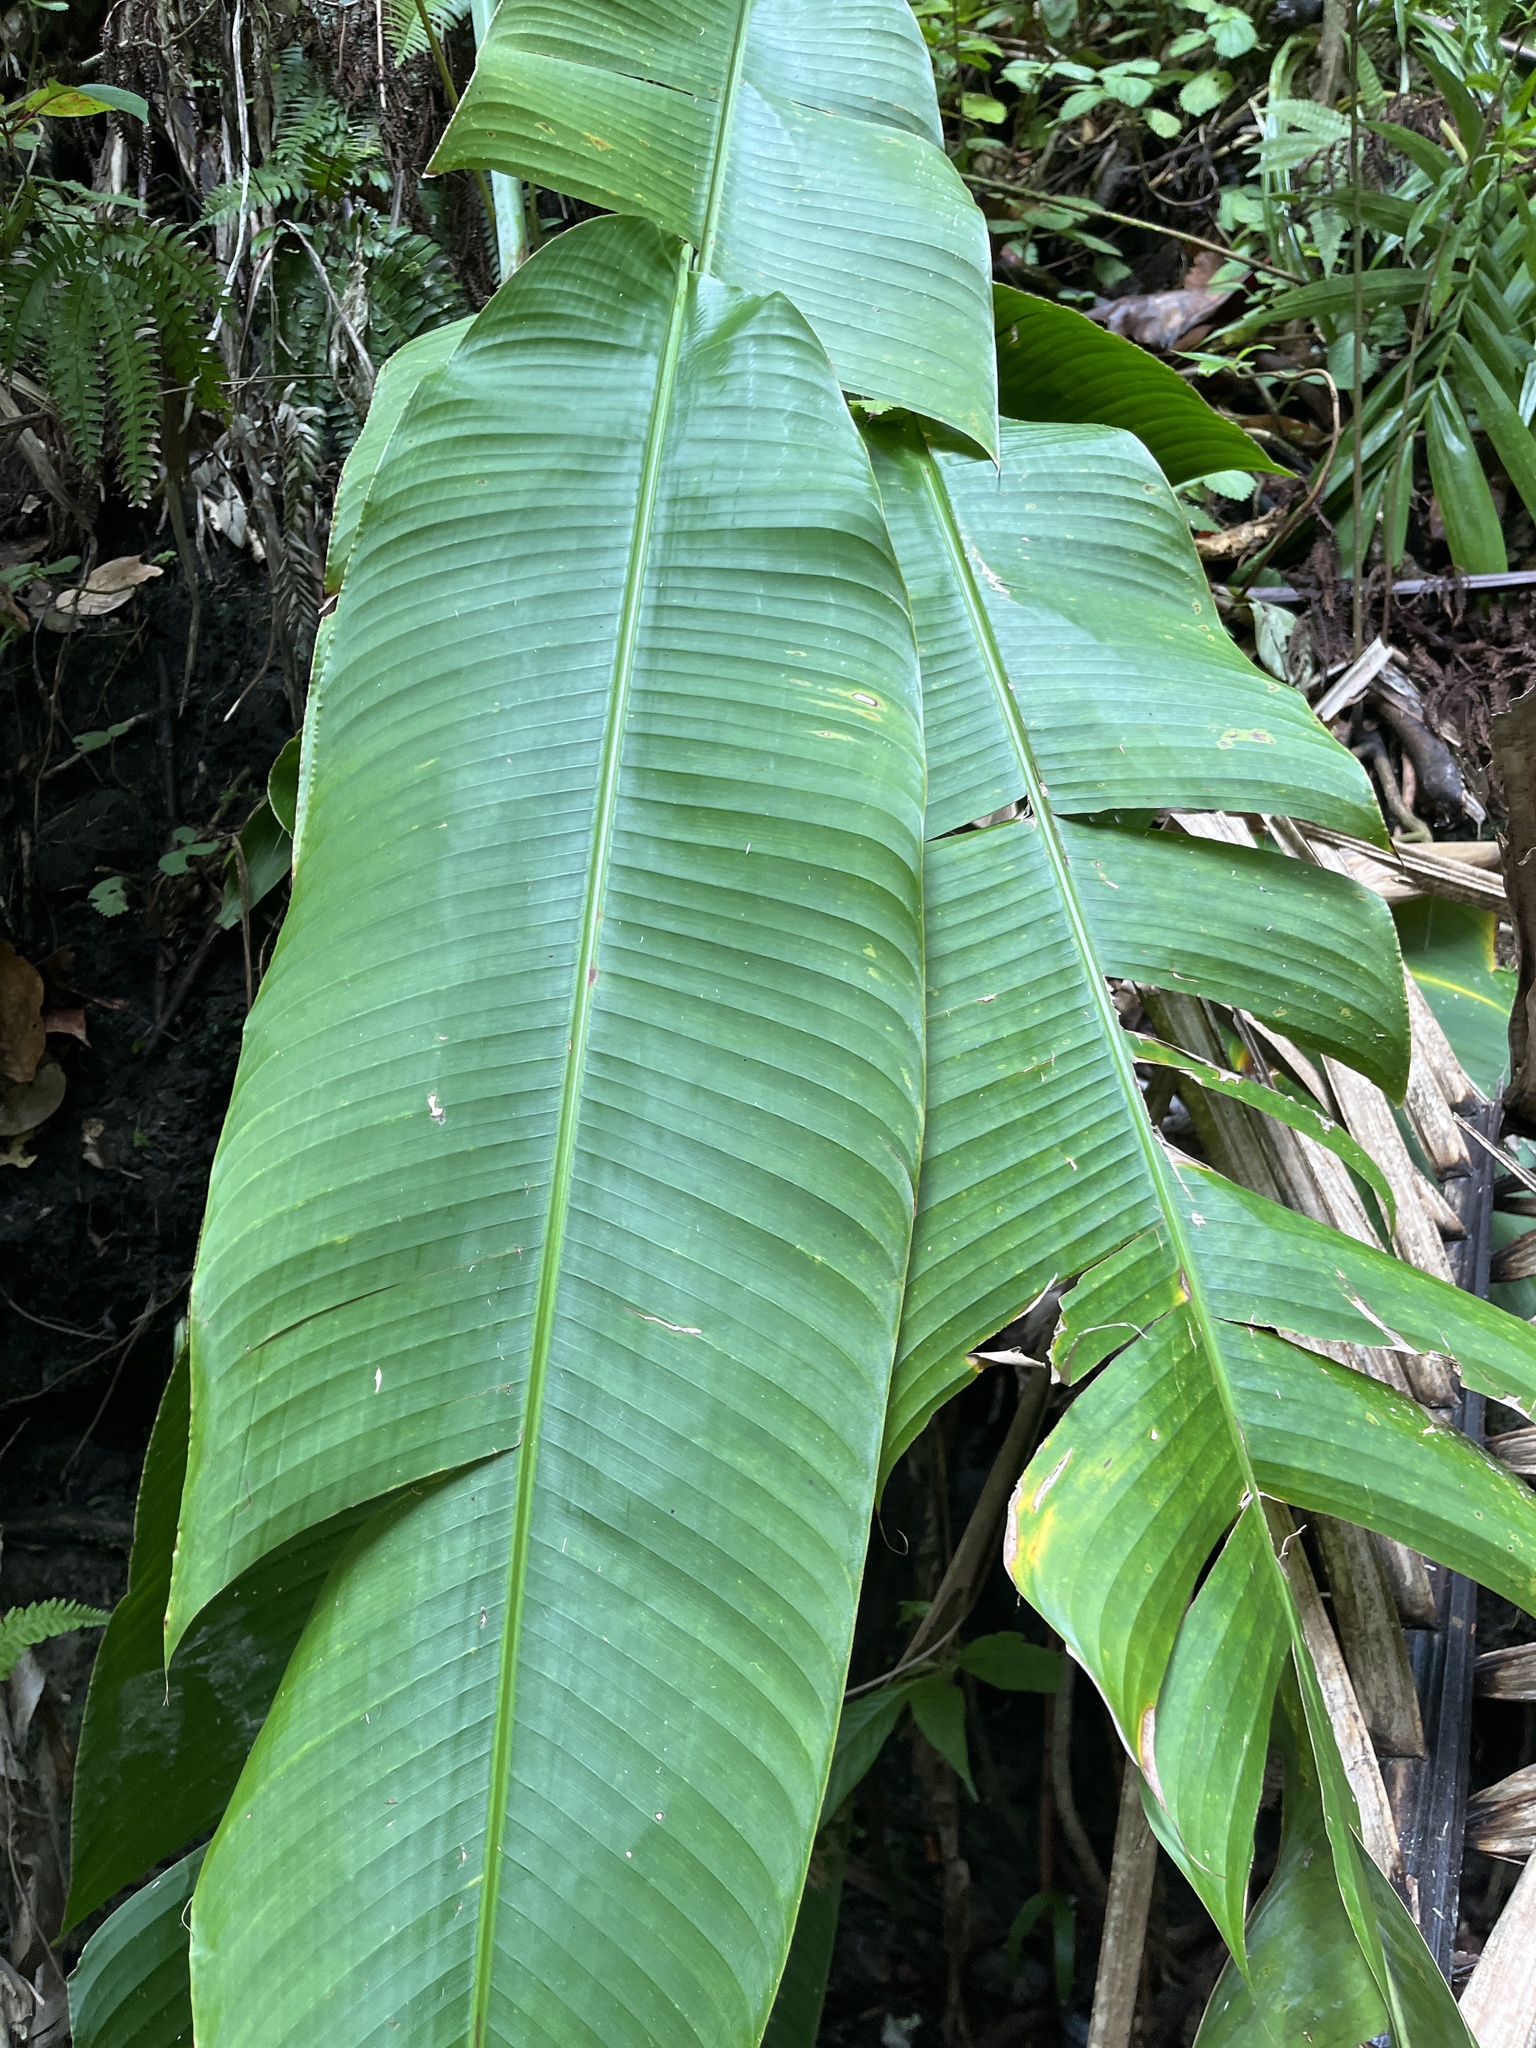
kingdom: Plantae
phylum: Tracheophyta
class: Liliopsida
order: Zingiberales
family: Heliconiaceae
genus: Heliconia
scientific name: Heliconia caribaea
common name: Wild plantain
